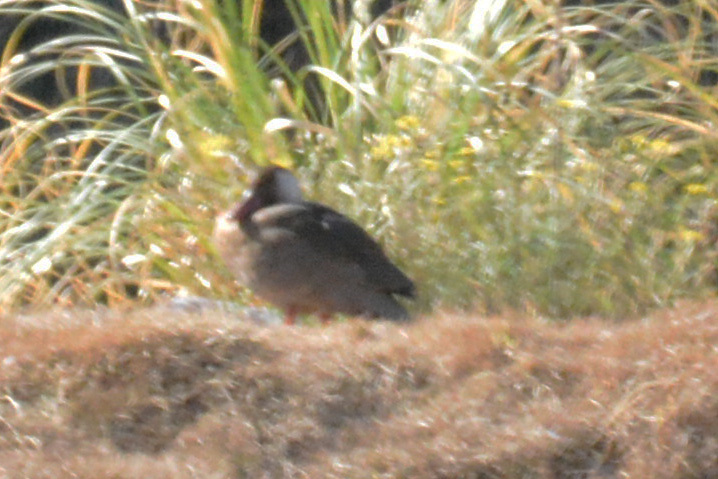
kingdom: Animalia
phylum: Chordata
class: Aves
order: Anseriformes
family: Anatidae
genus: Amazonetta
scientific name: Amazonetta brasiliensis
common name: Brazilian teal
